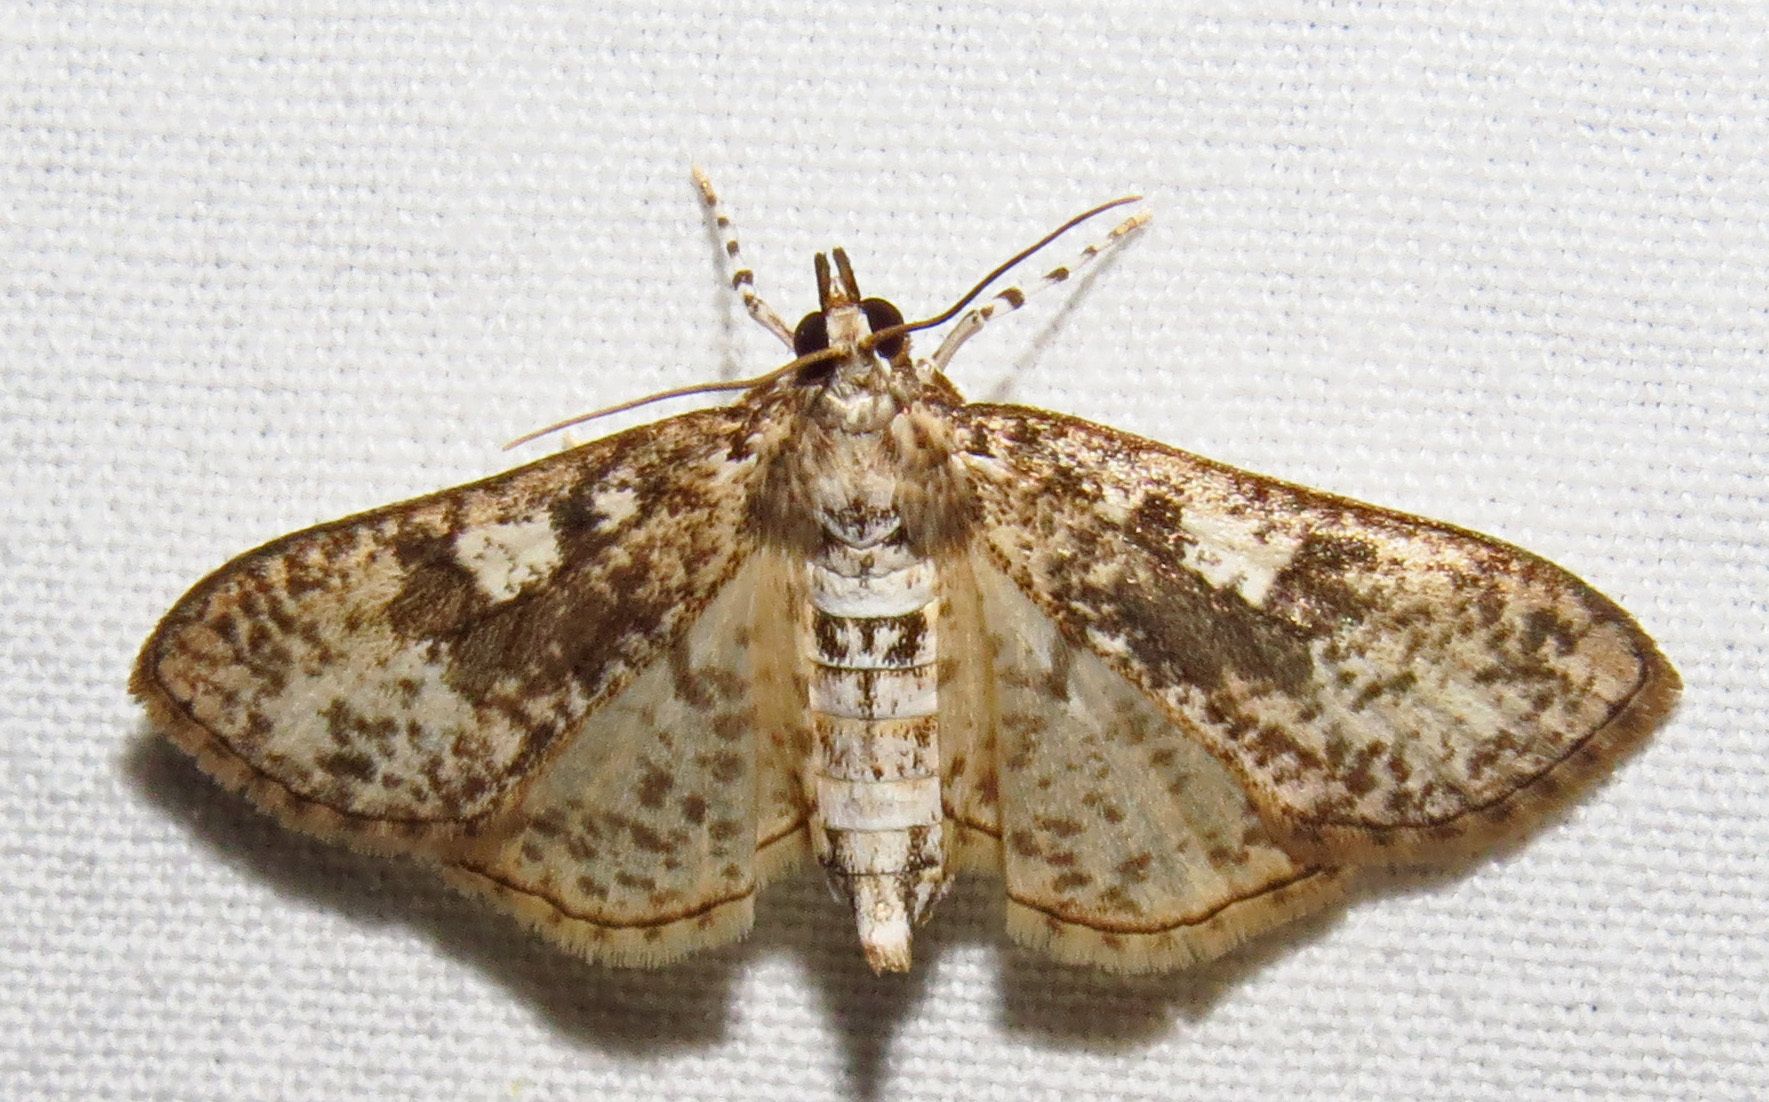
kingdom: Animalia
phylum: Arthropoda
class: Insecta
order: Lepidoptera
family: Crambidae
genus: Palpita
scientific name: Palpita magniferalis
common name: Splendid palpita moth
